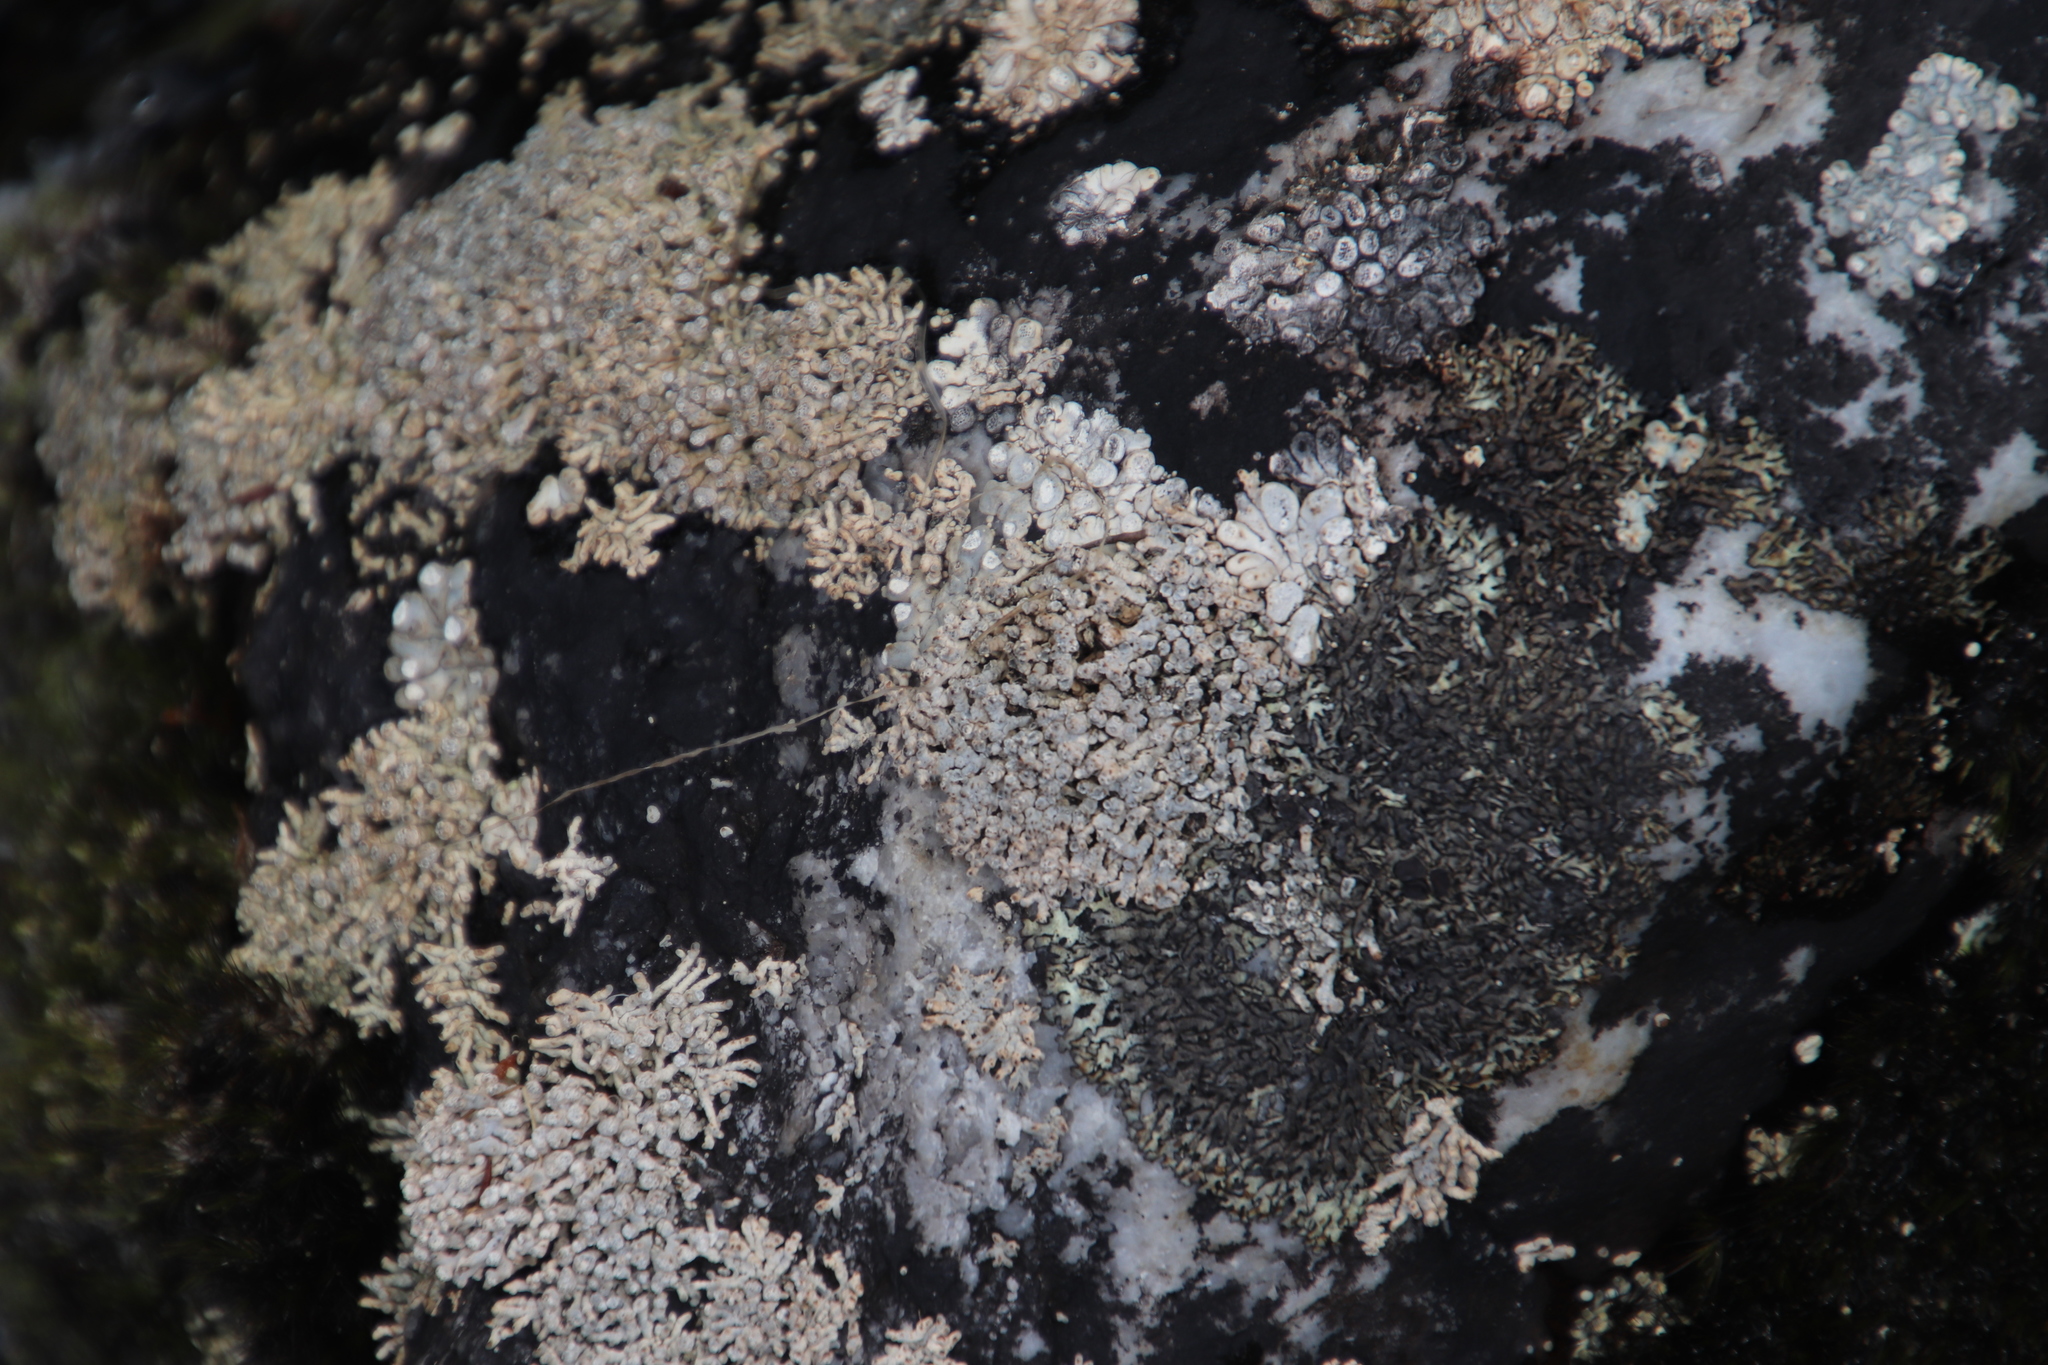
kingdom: Fungi
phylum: Ascomycota
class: Lecanoromycetes
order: Pertusariales
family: Icmadophilaceae
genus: Siphula
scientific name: Siphula verrucigera
